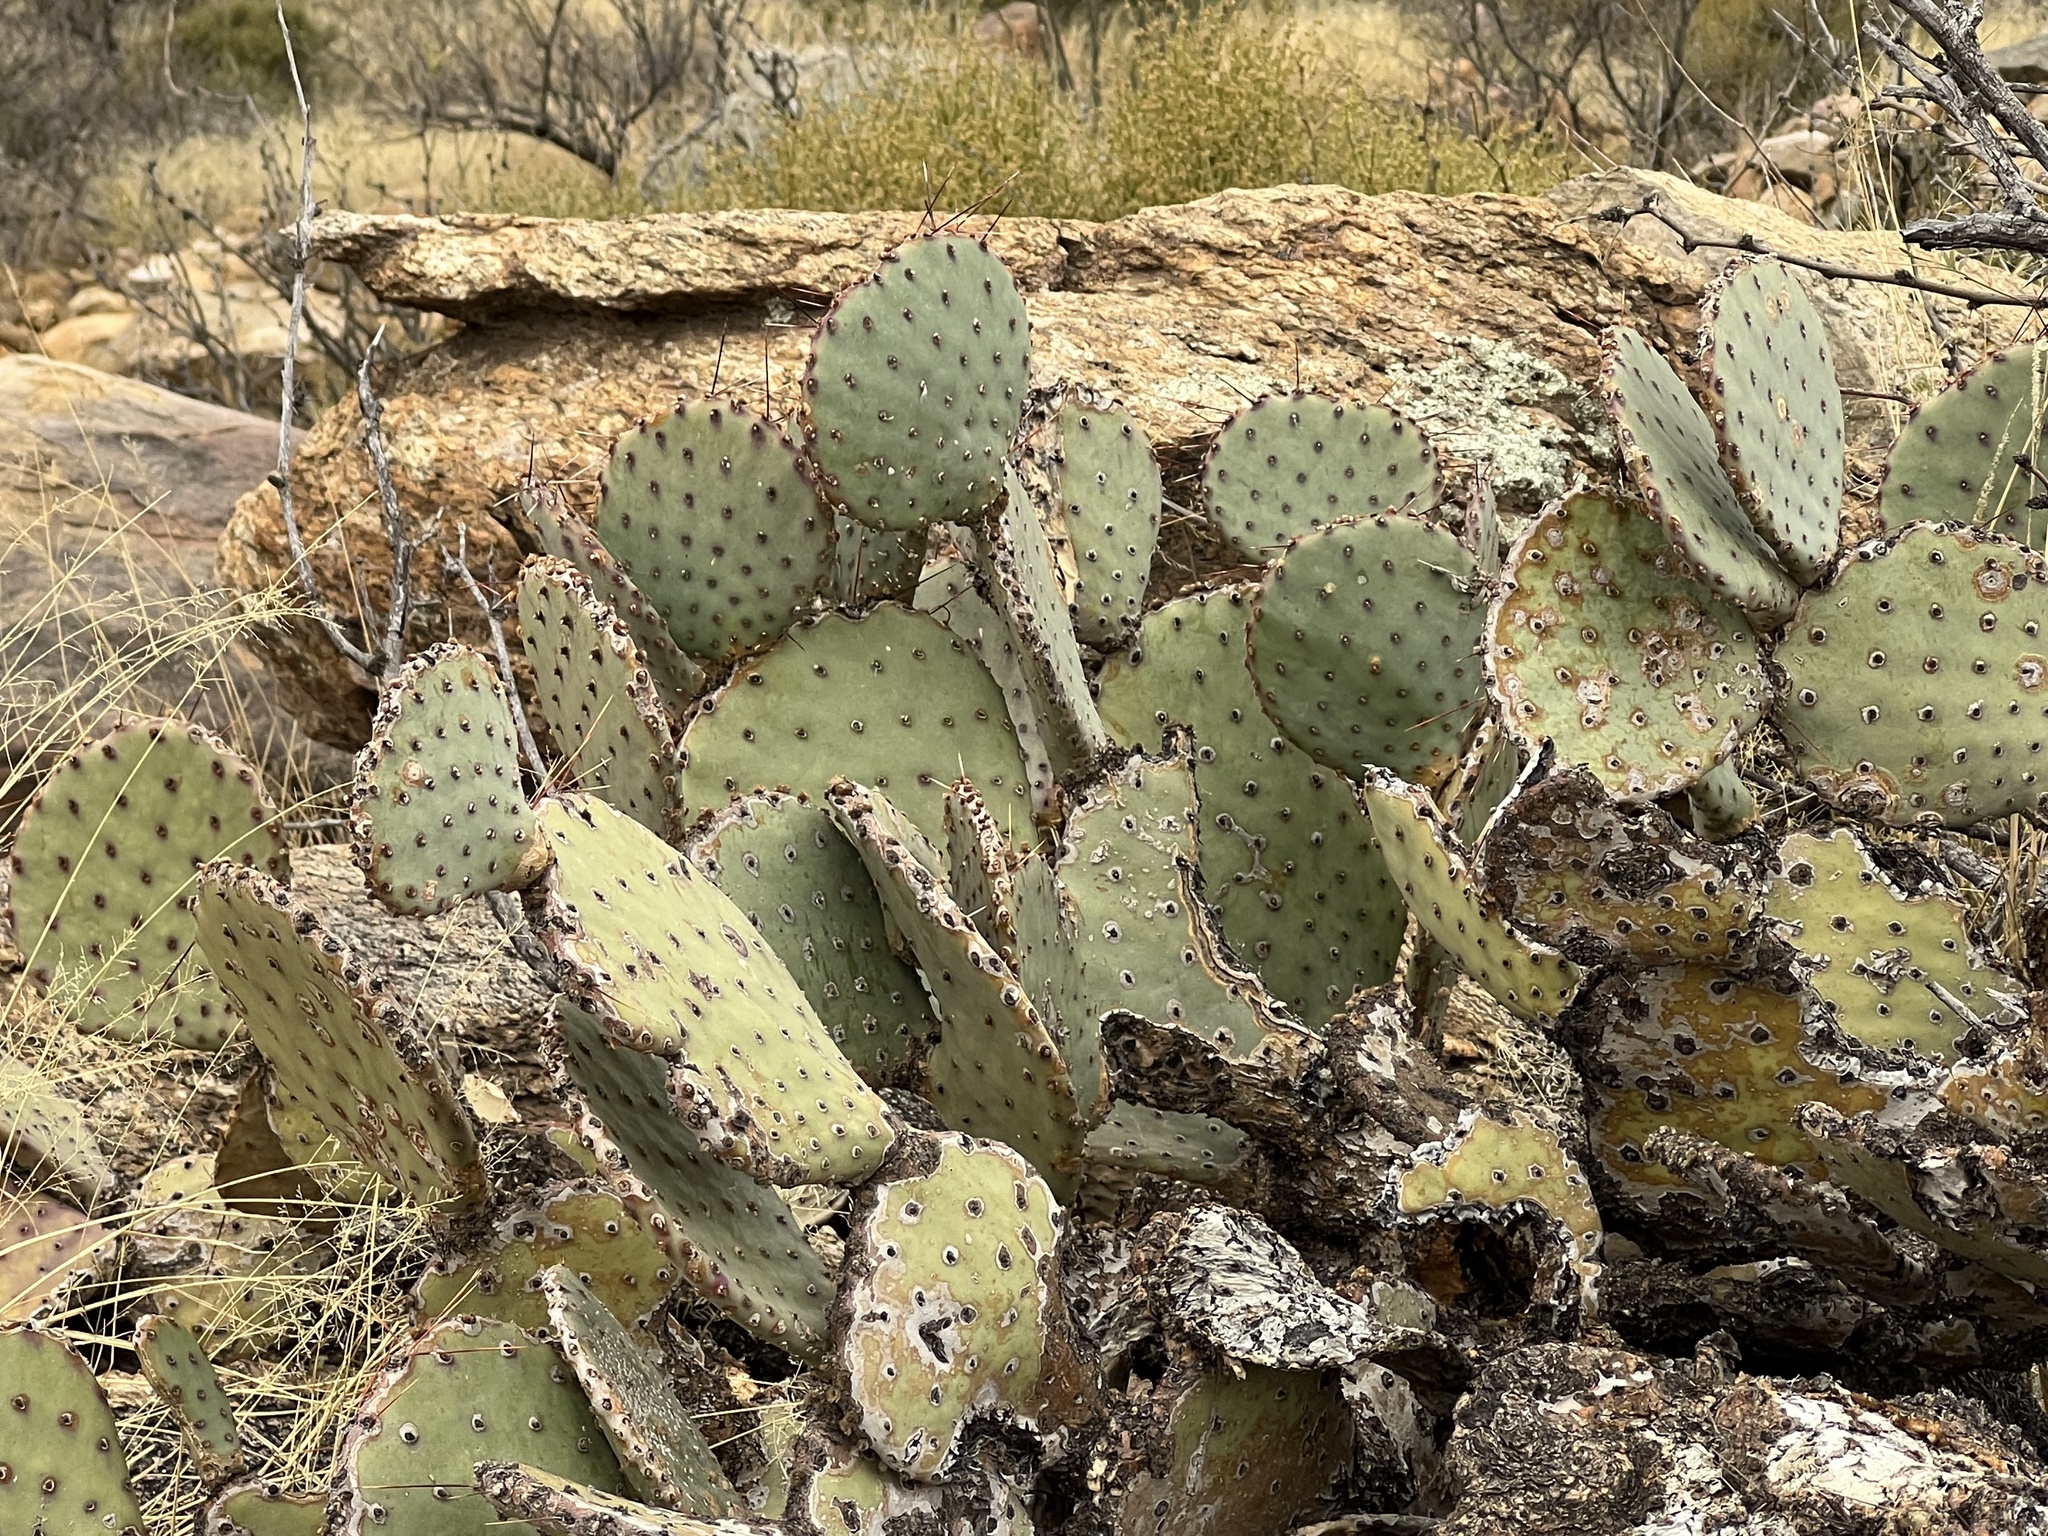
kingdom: Plantae
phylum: Tracheophyta
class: Magnoliopsida
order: Caryophyllales
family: Cactaceae
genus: Opuntia
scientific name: Opuntia phaeacantha
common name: New mexico prickly-pear
